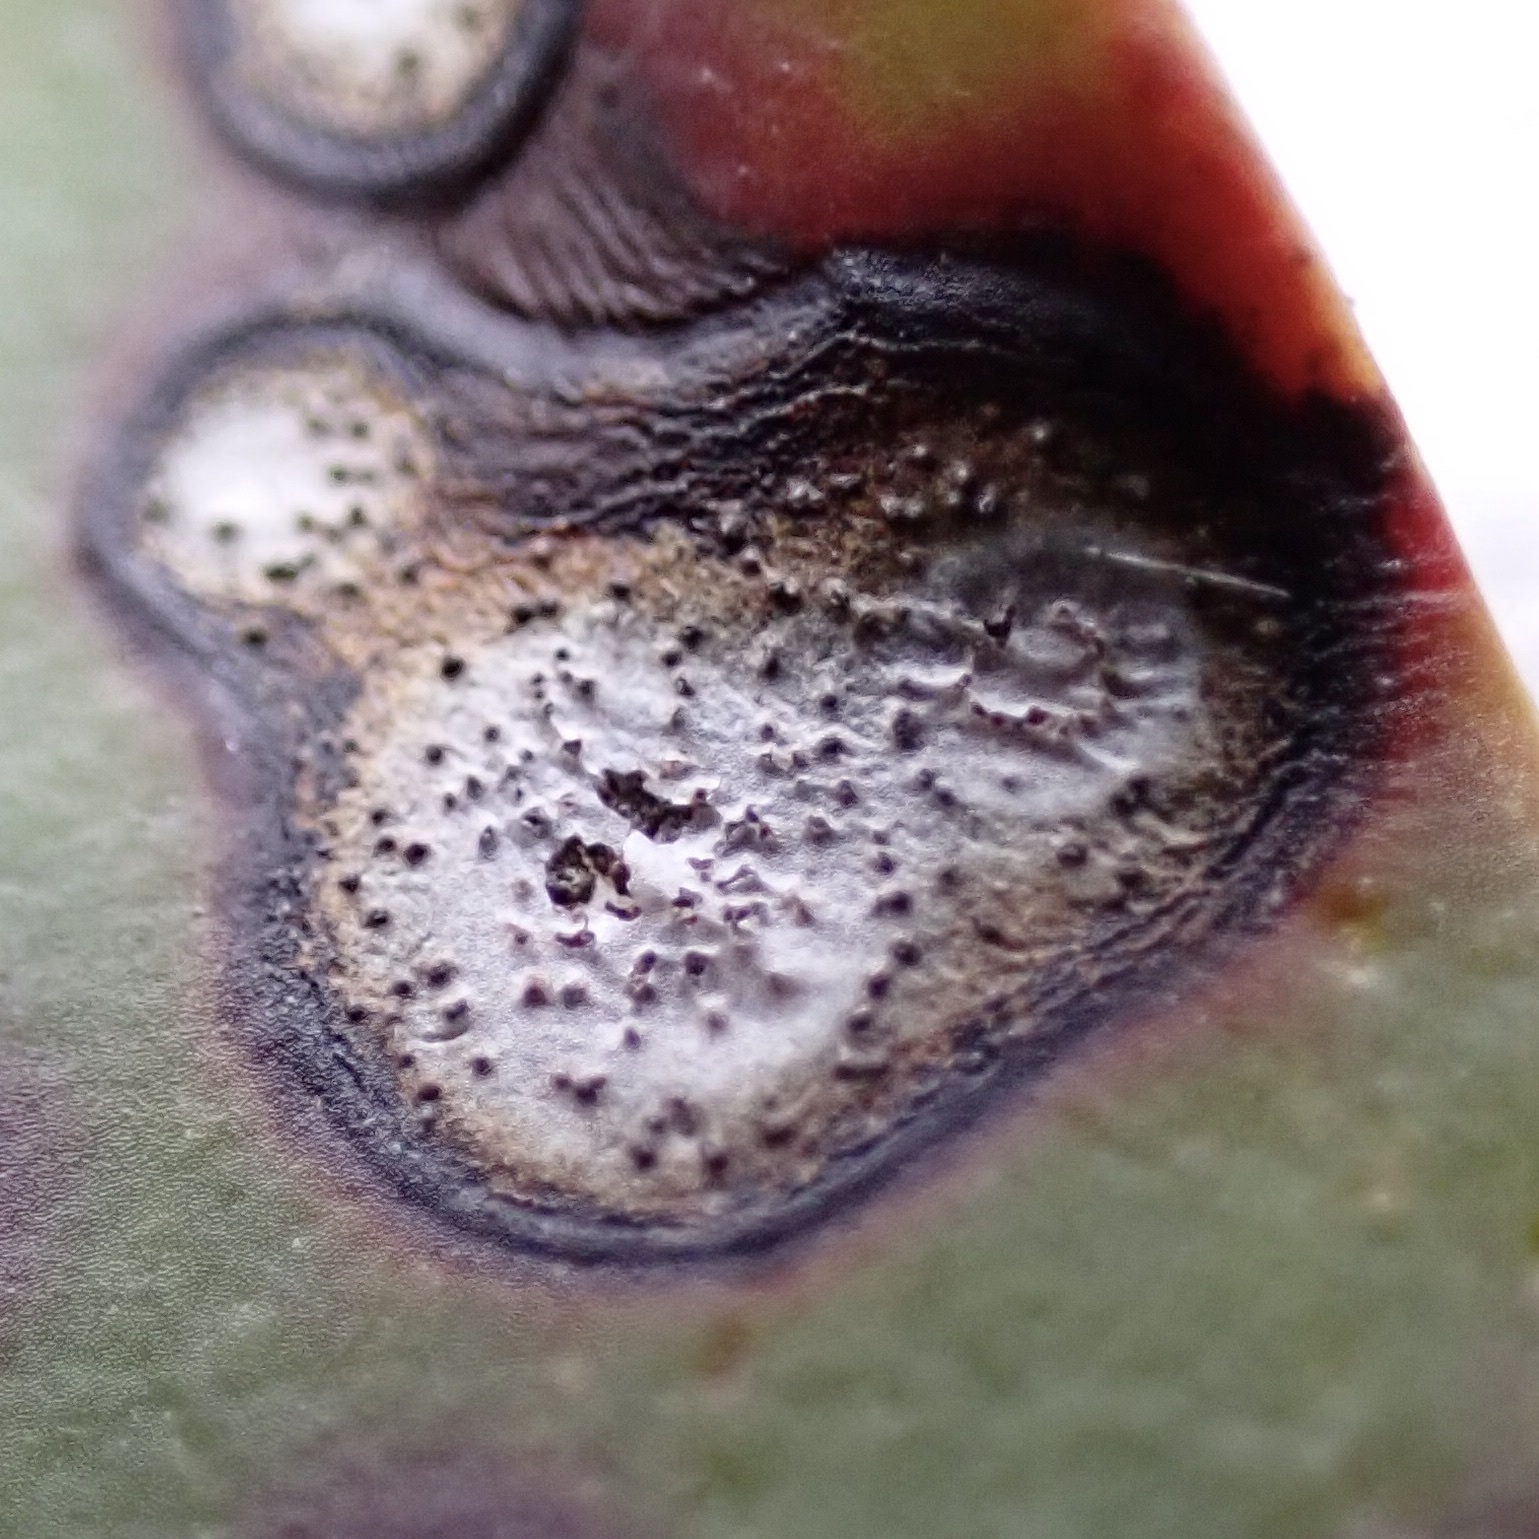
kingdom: Fungi
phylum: Ascomycota
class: Dothideomycetes
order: Mycosphaerellales
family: Mycosphaerellaceae
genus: Mycosphaerella
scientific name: Mycosphaerella colorata
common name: Mountain laurel leaf spot
